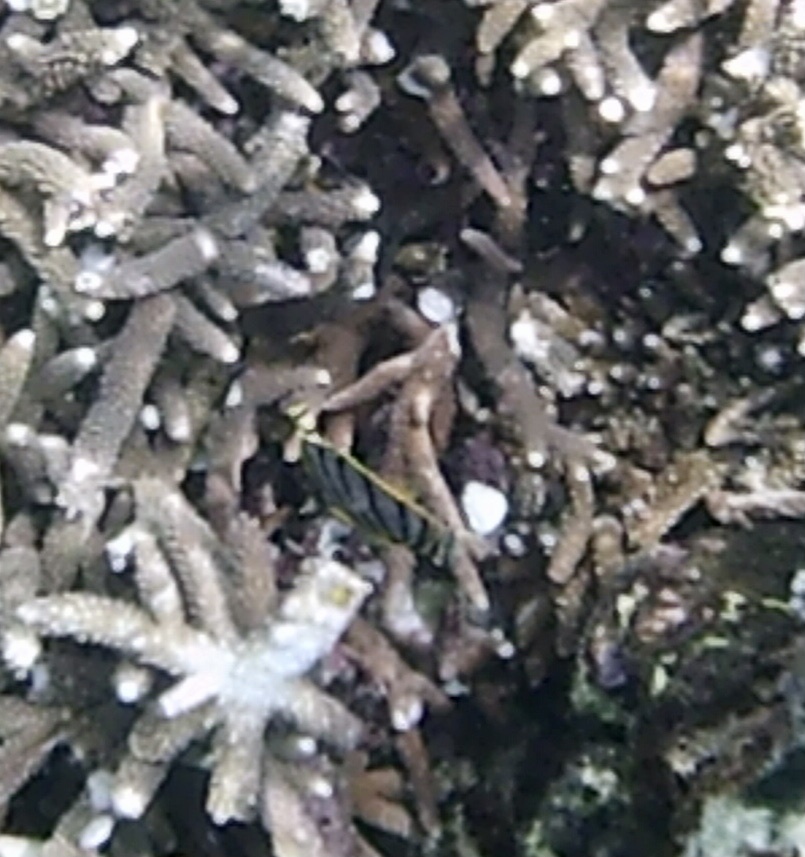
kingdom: Animalia
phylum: Chordata
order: Perciformes
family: Chaetodontidae
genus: Chaetodon
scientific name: Chaetodon meyeri
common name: Meyer's butterflyfish
